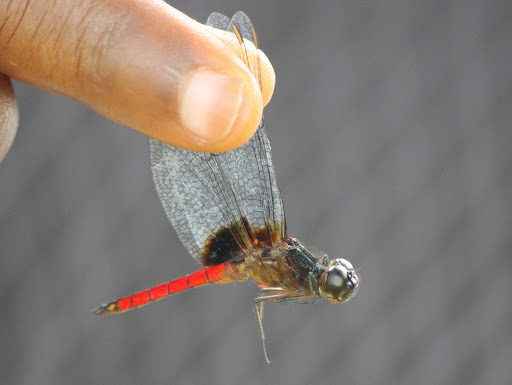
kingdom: Animalia
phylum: Arthropoda
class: Insecta
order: Odonata
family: Libellulidae
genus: Hadrothemis
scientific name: Hadrothemis defecta
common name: Scarlet jungleskimmer
